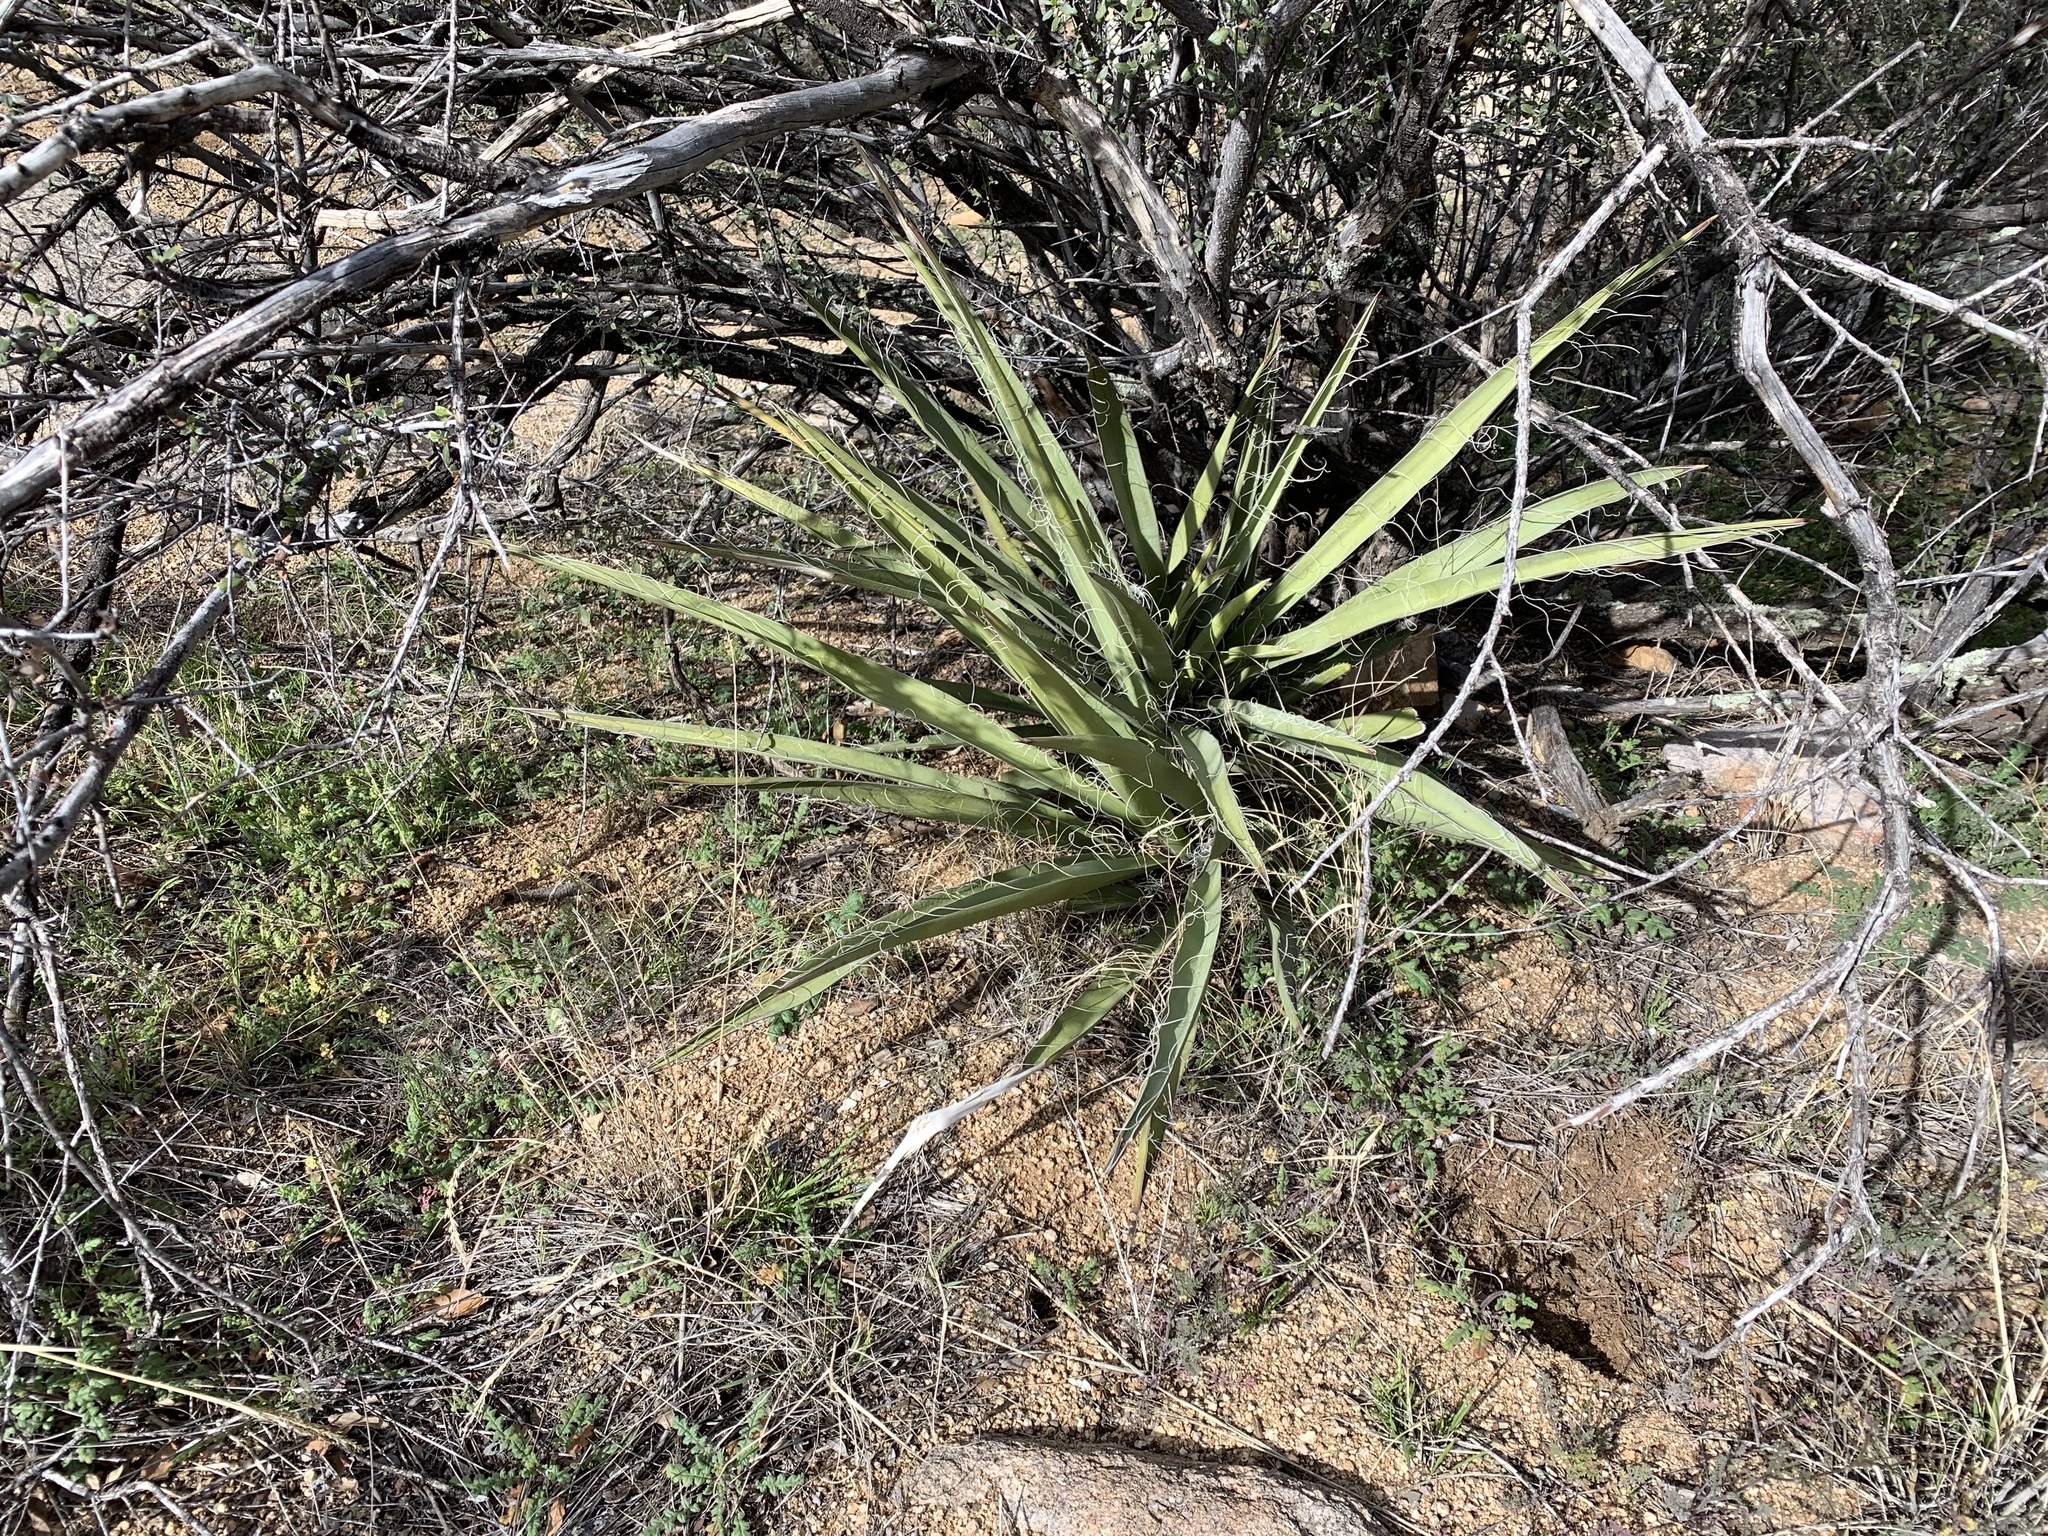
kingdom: Plantae
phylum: Tracheophyta
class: Liliopsida
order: Asparagales
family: Asparagaceae
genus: Yucca
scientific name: Yucca baccata
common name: Banana yucca
